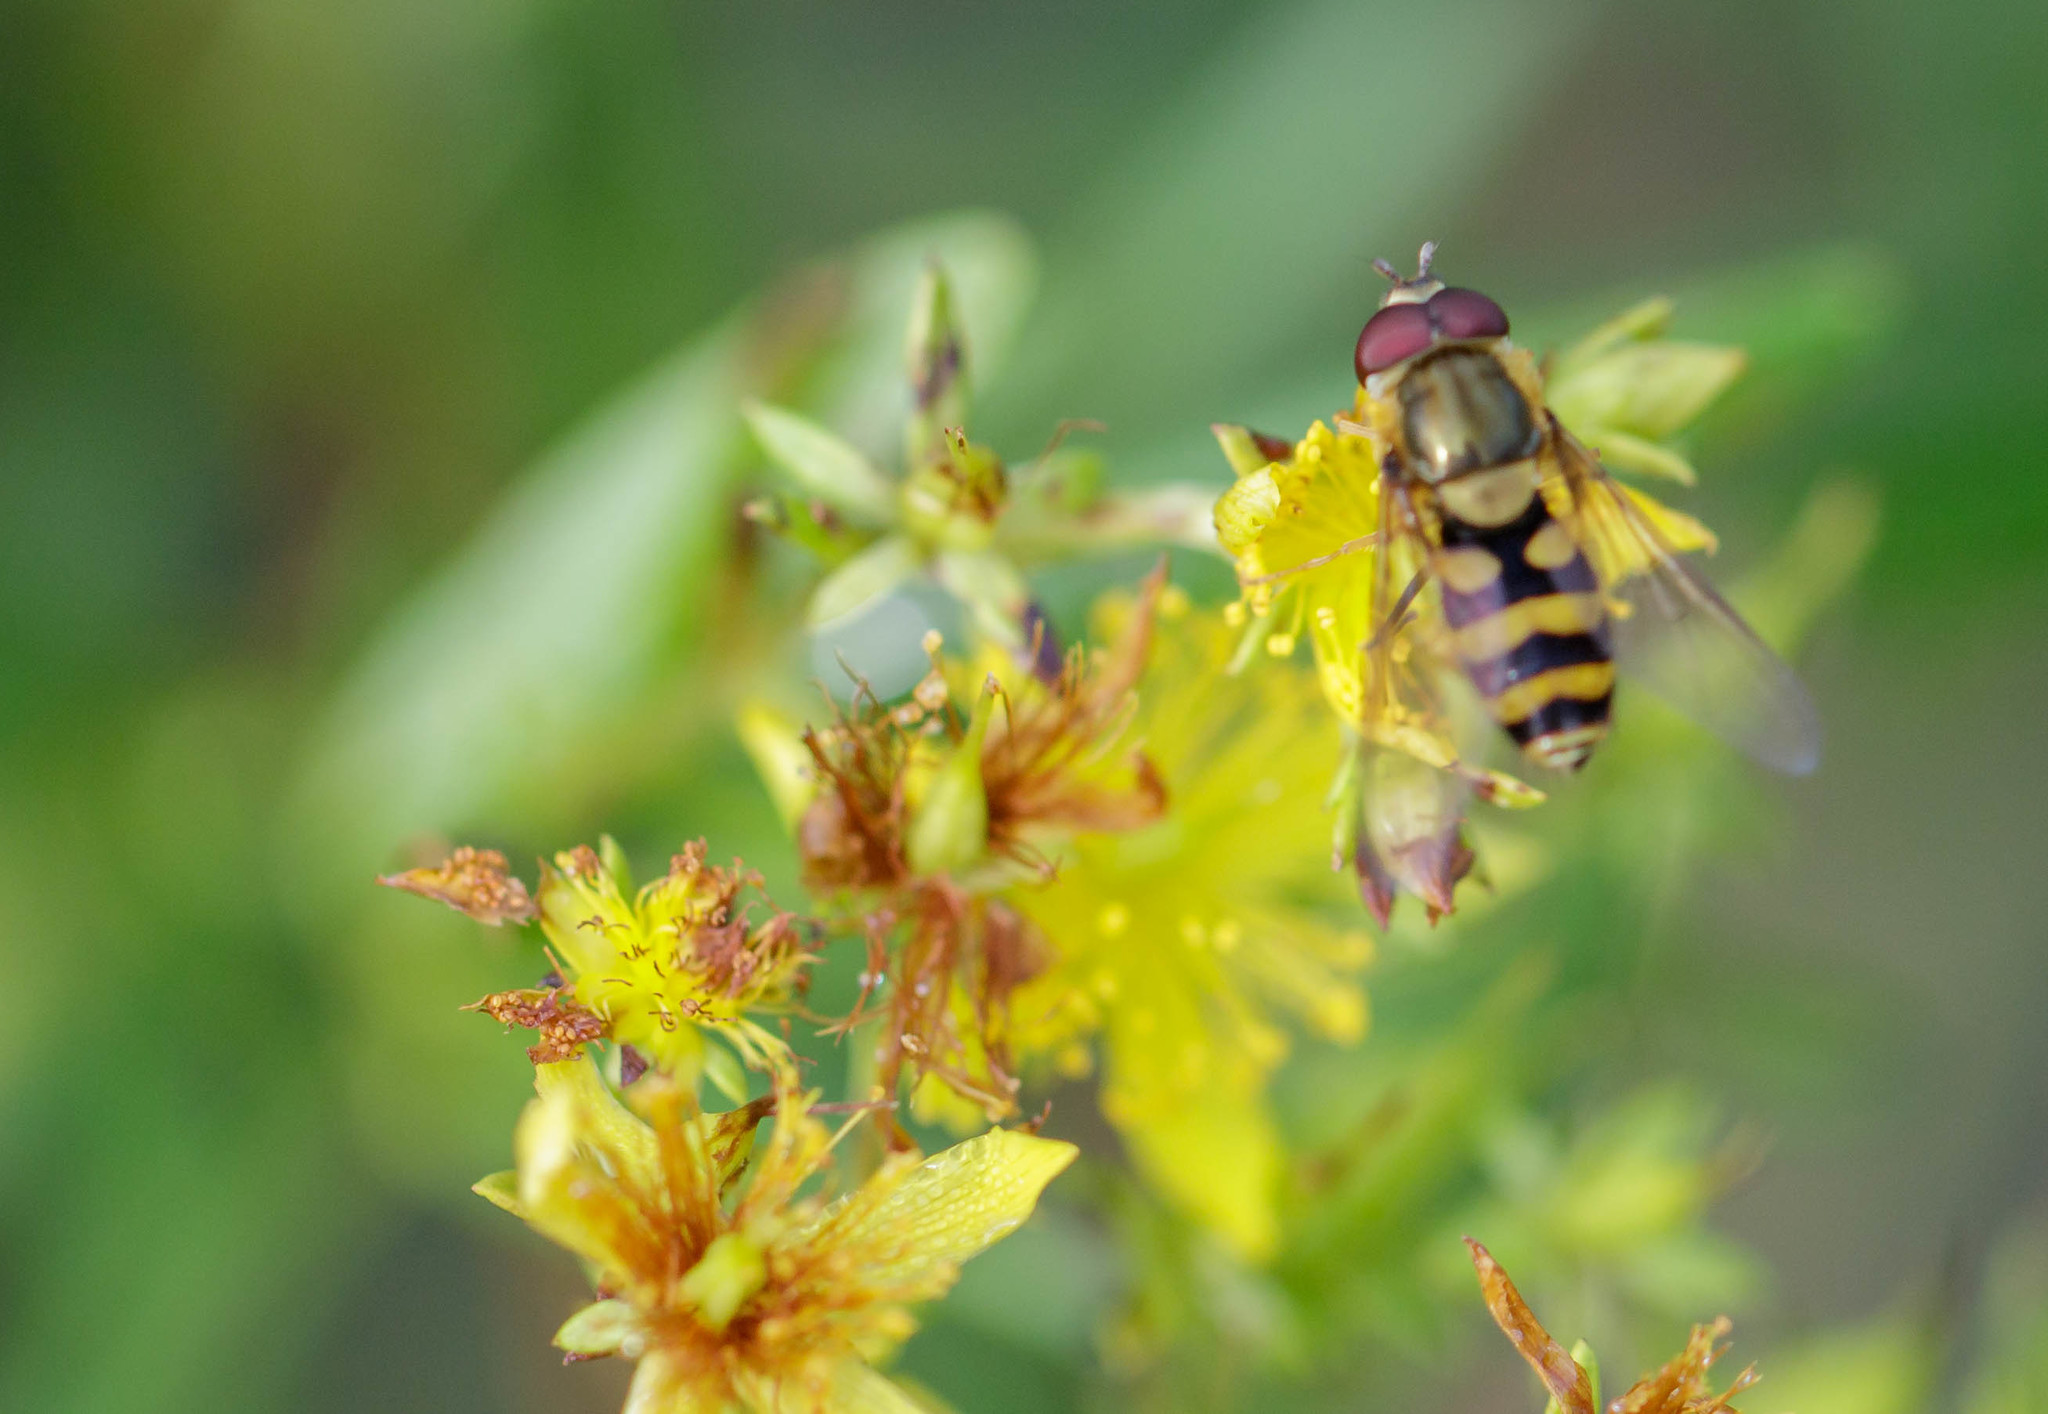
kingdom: Animalia
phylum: Arthropoda
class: Insecta
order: Diptera
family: Syrphidae
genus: Syrphus
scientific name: Syrphus
